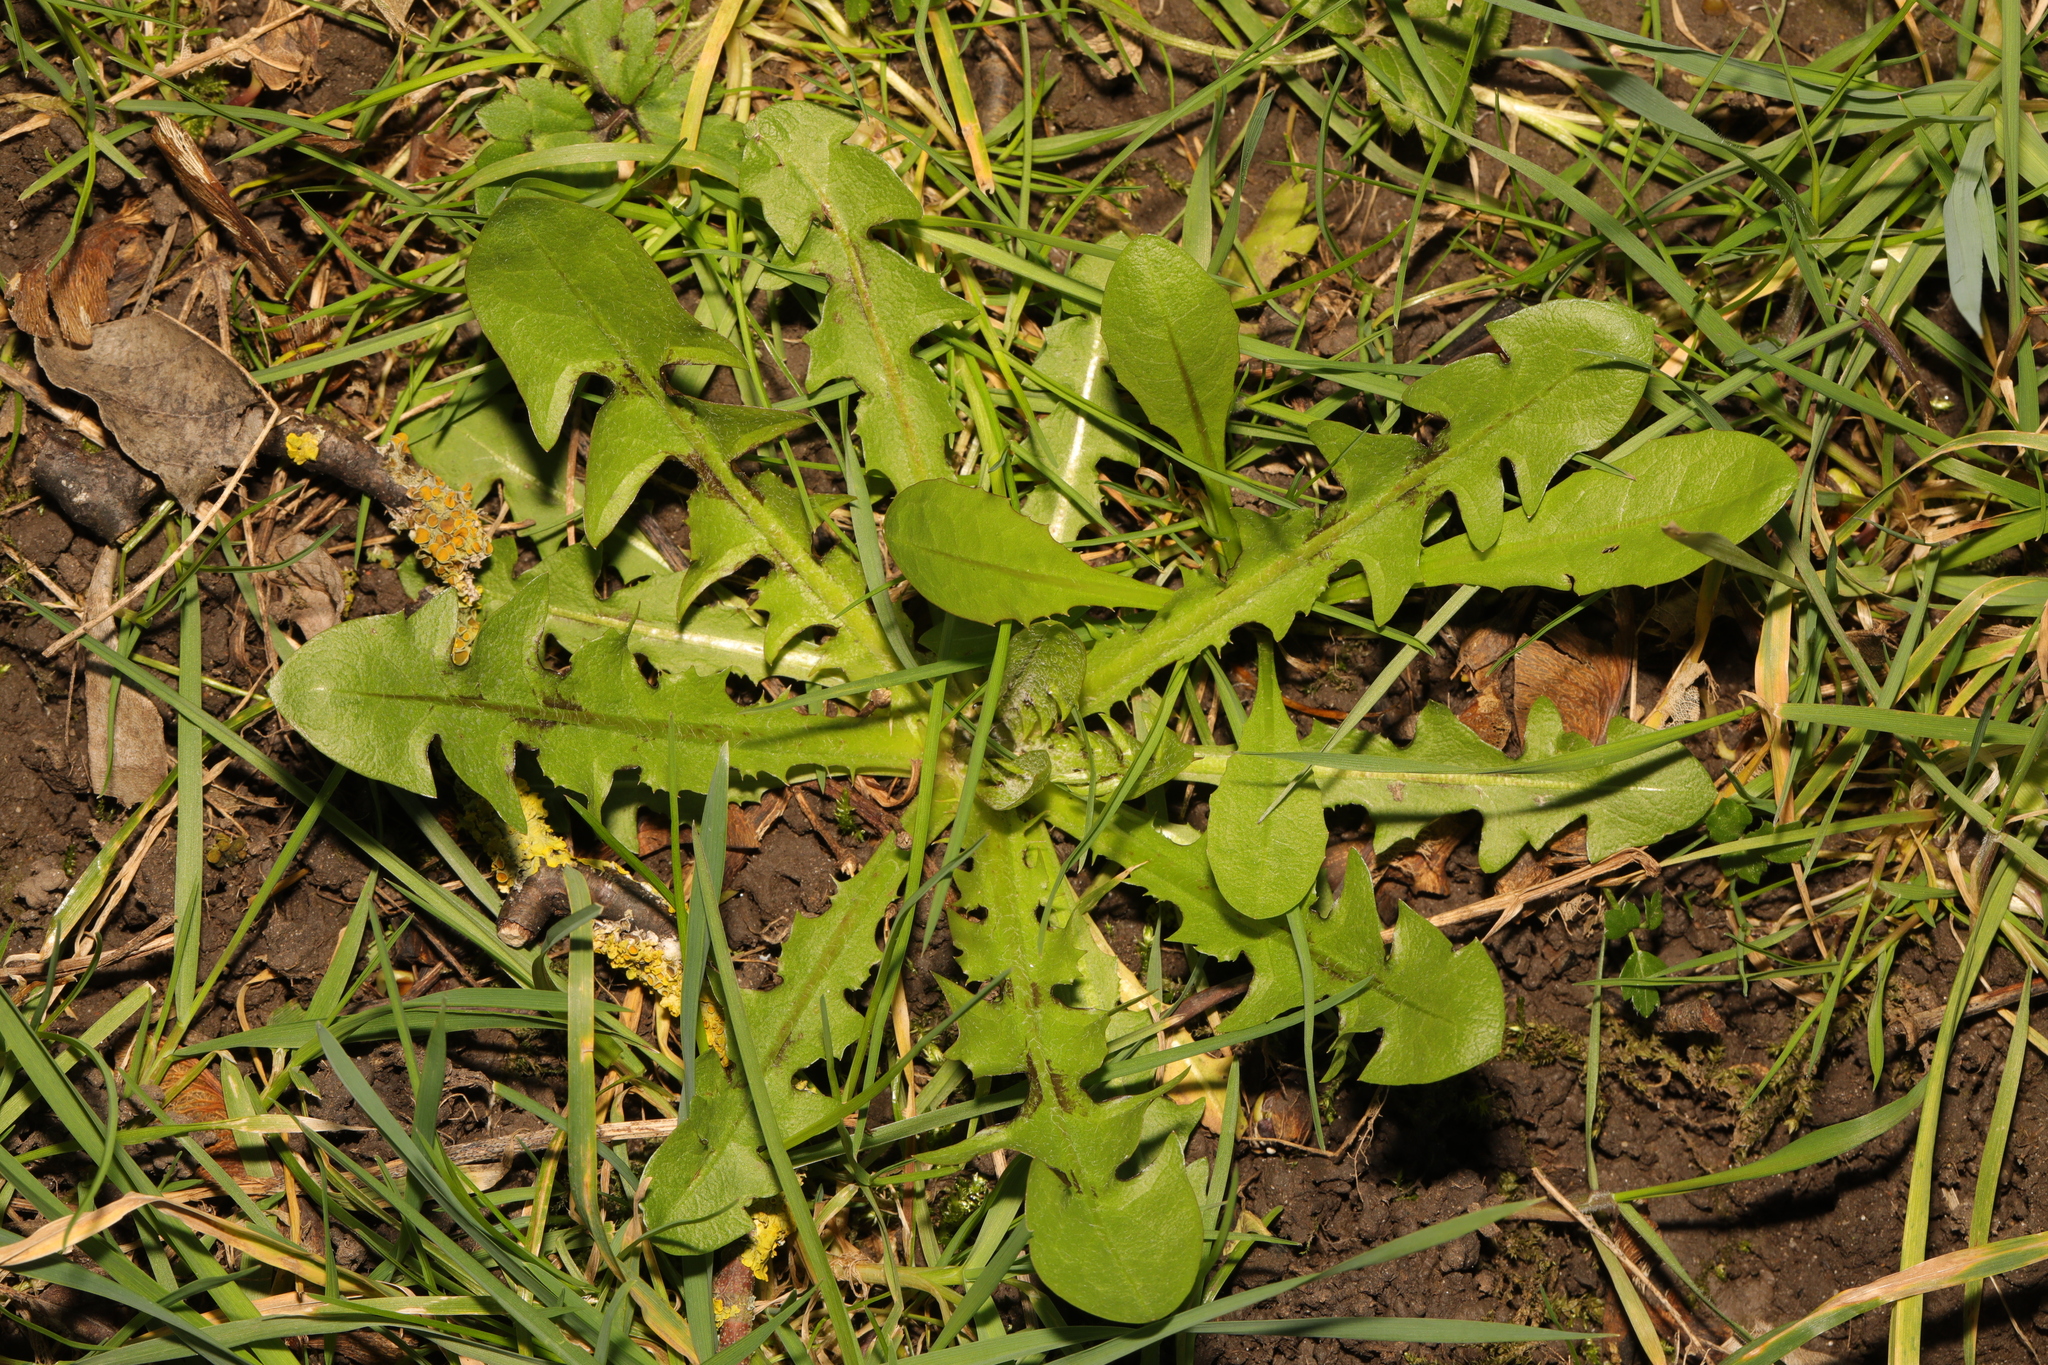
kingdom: Plantae
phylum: Tracheophyta
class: Magnoliopsida
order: Asterales
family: Asteraceae
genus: Taraxacum
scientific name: Taraxacum officinale
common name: Common dandelion
